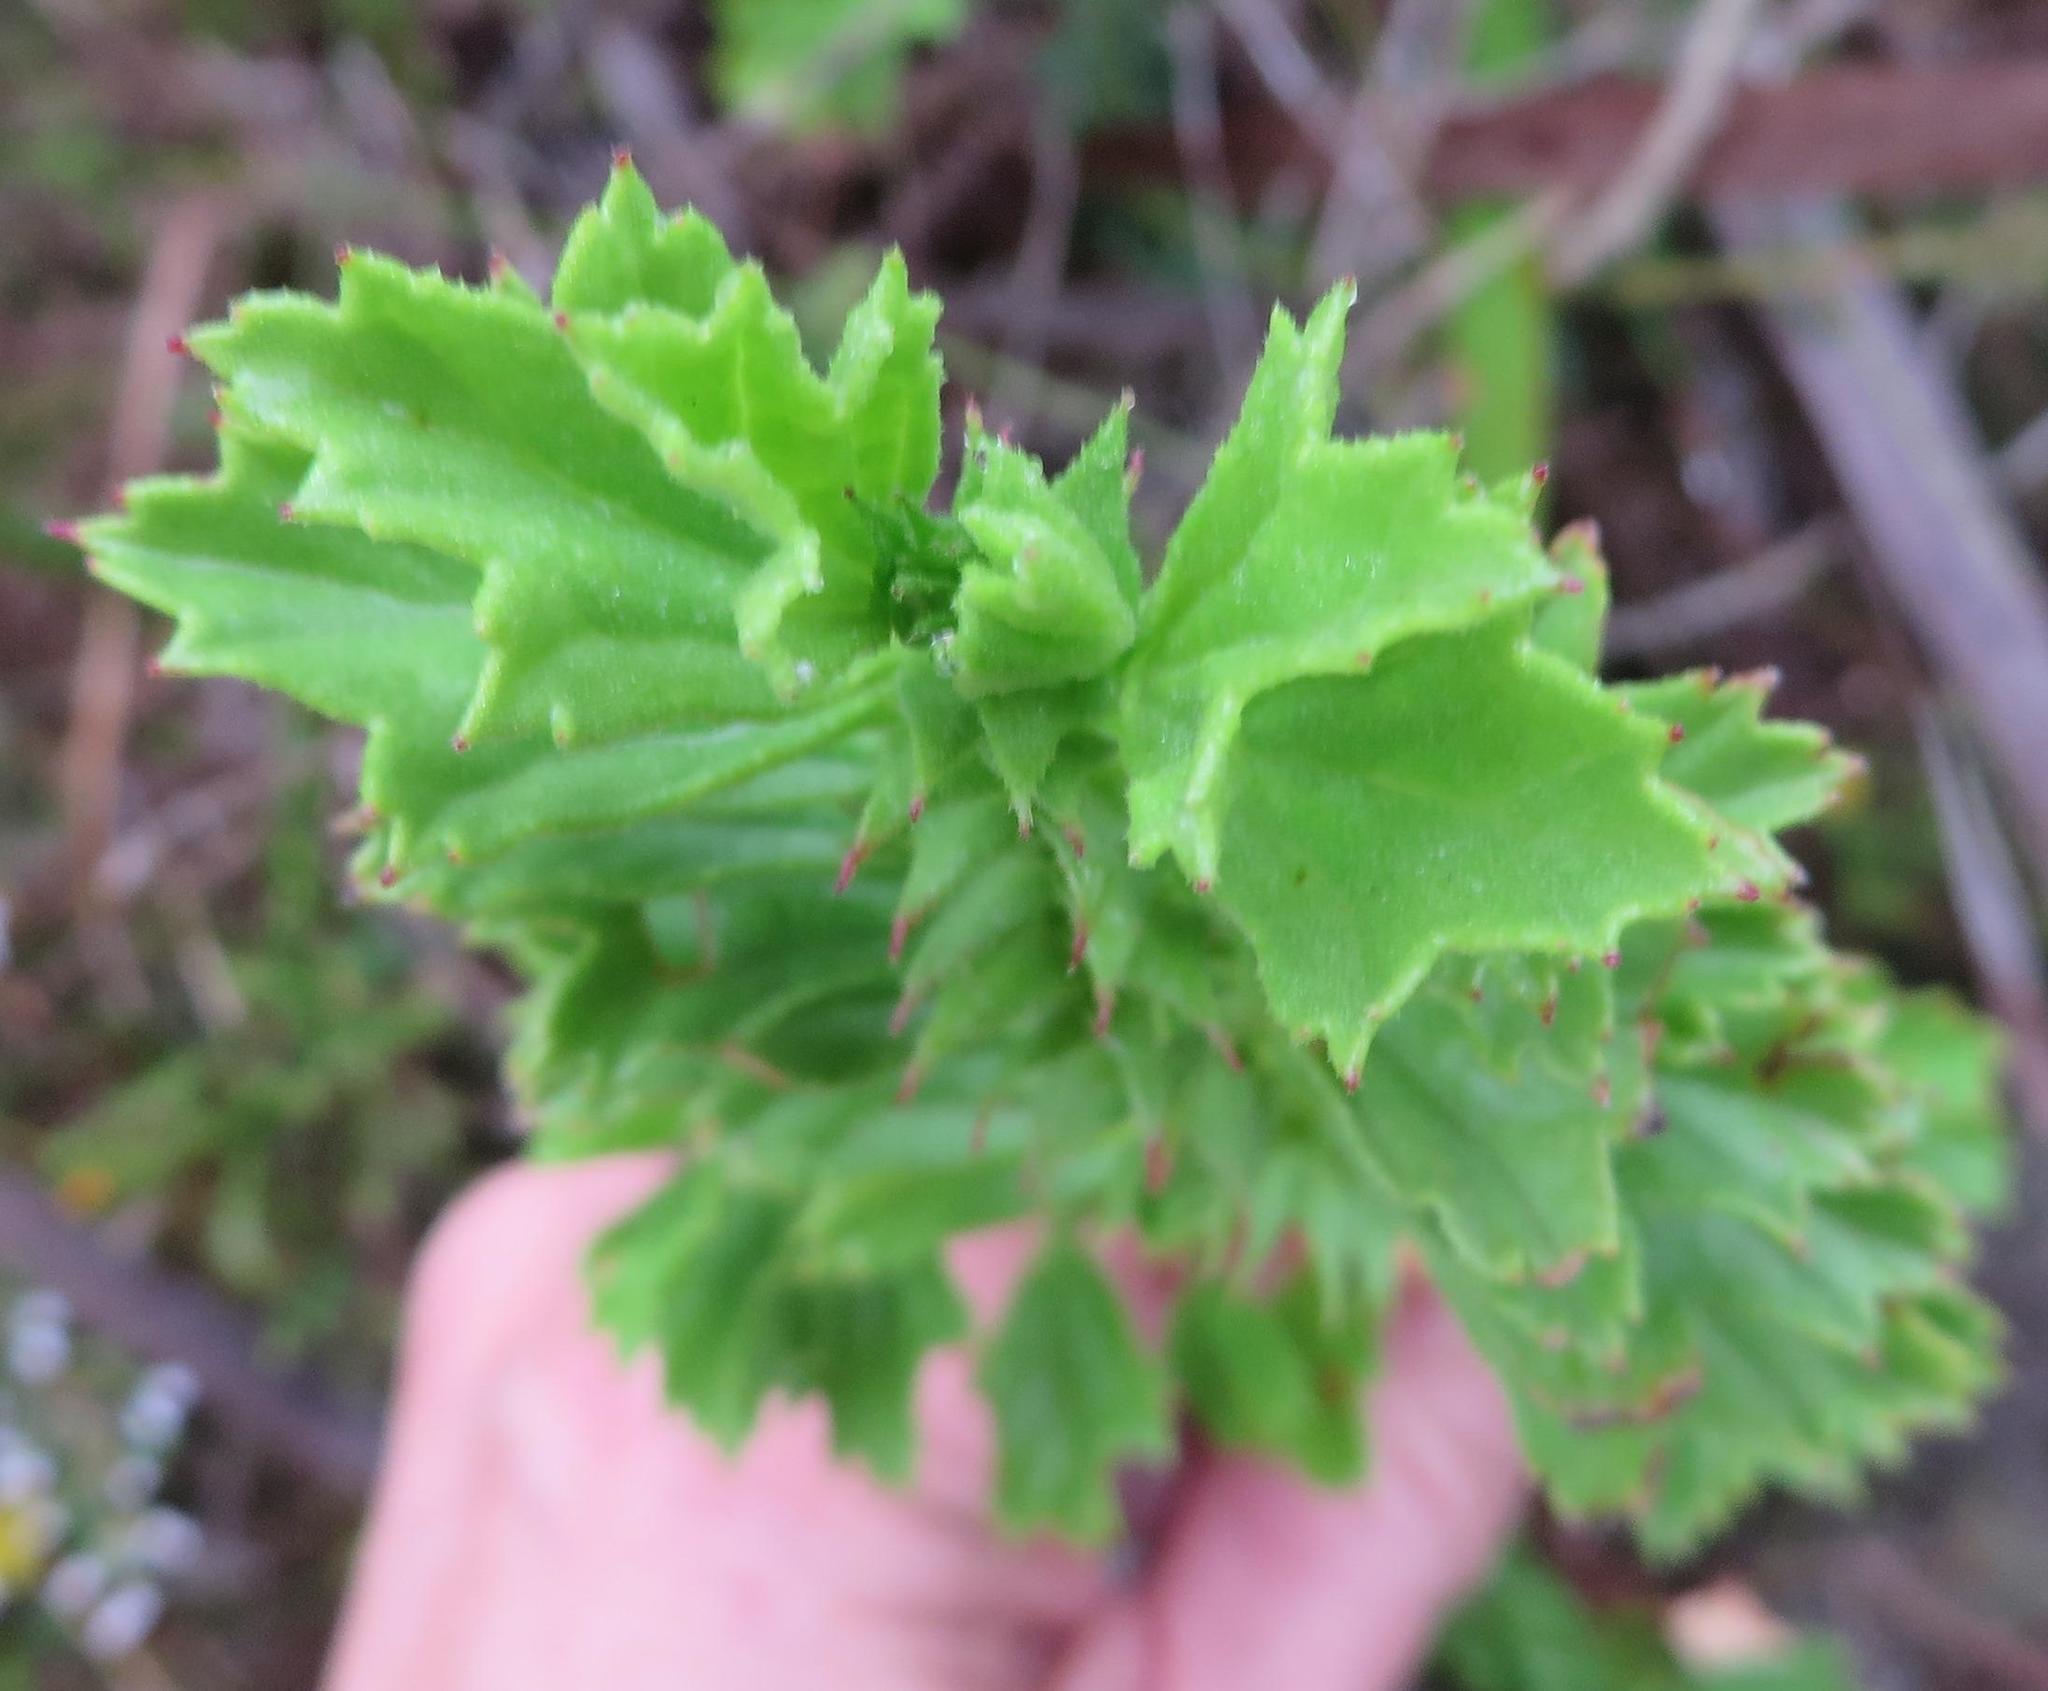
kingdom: Plantae
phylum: Tracheophyta
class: Magnoliopsida
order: Geraniales
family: Geraniaceae
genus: Pelargonium
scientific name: Pelargonium hermaniifolium
